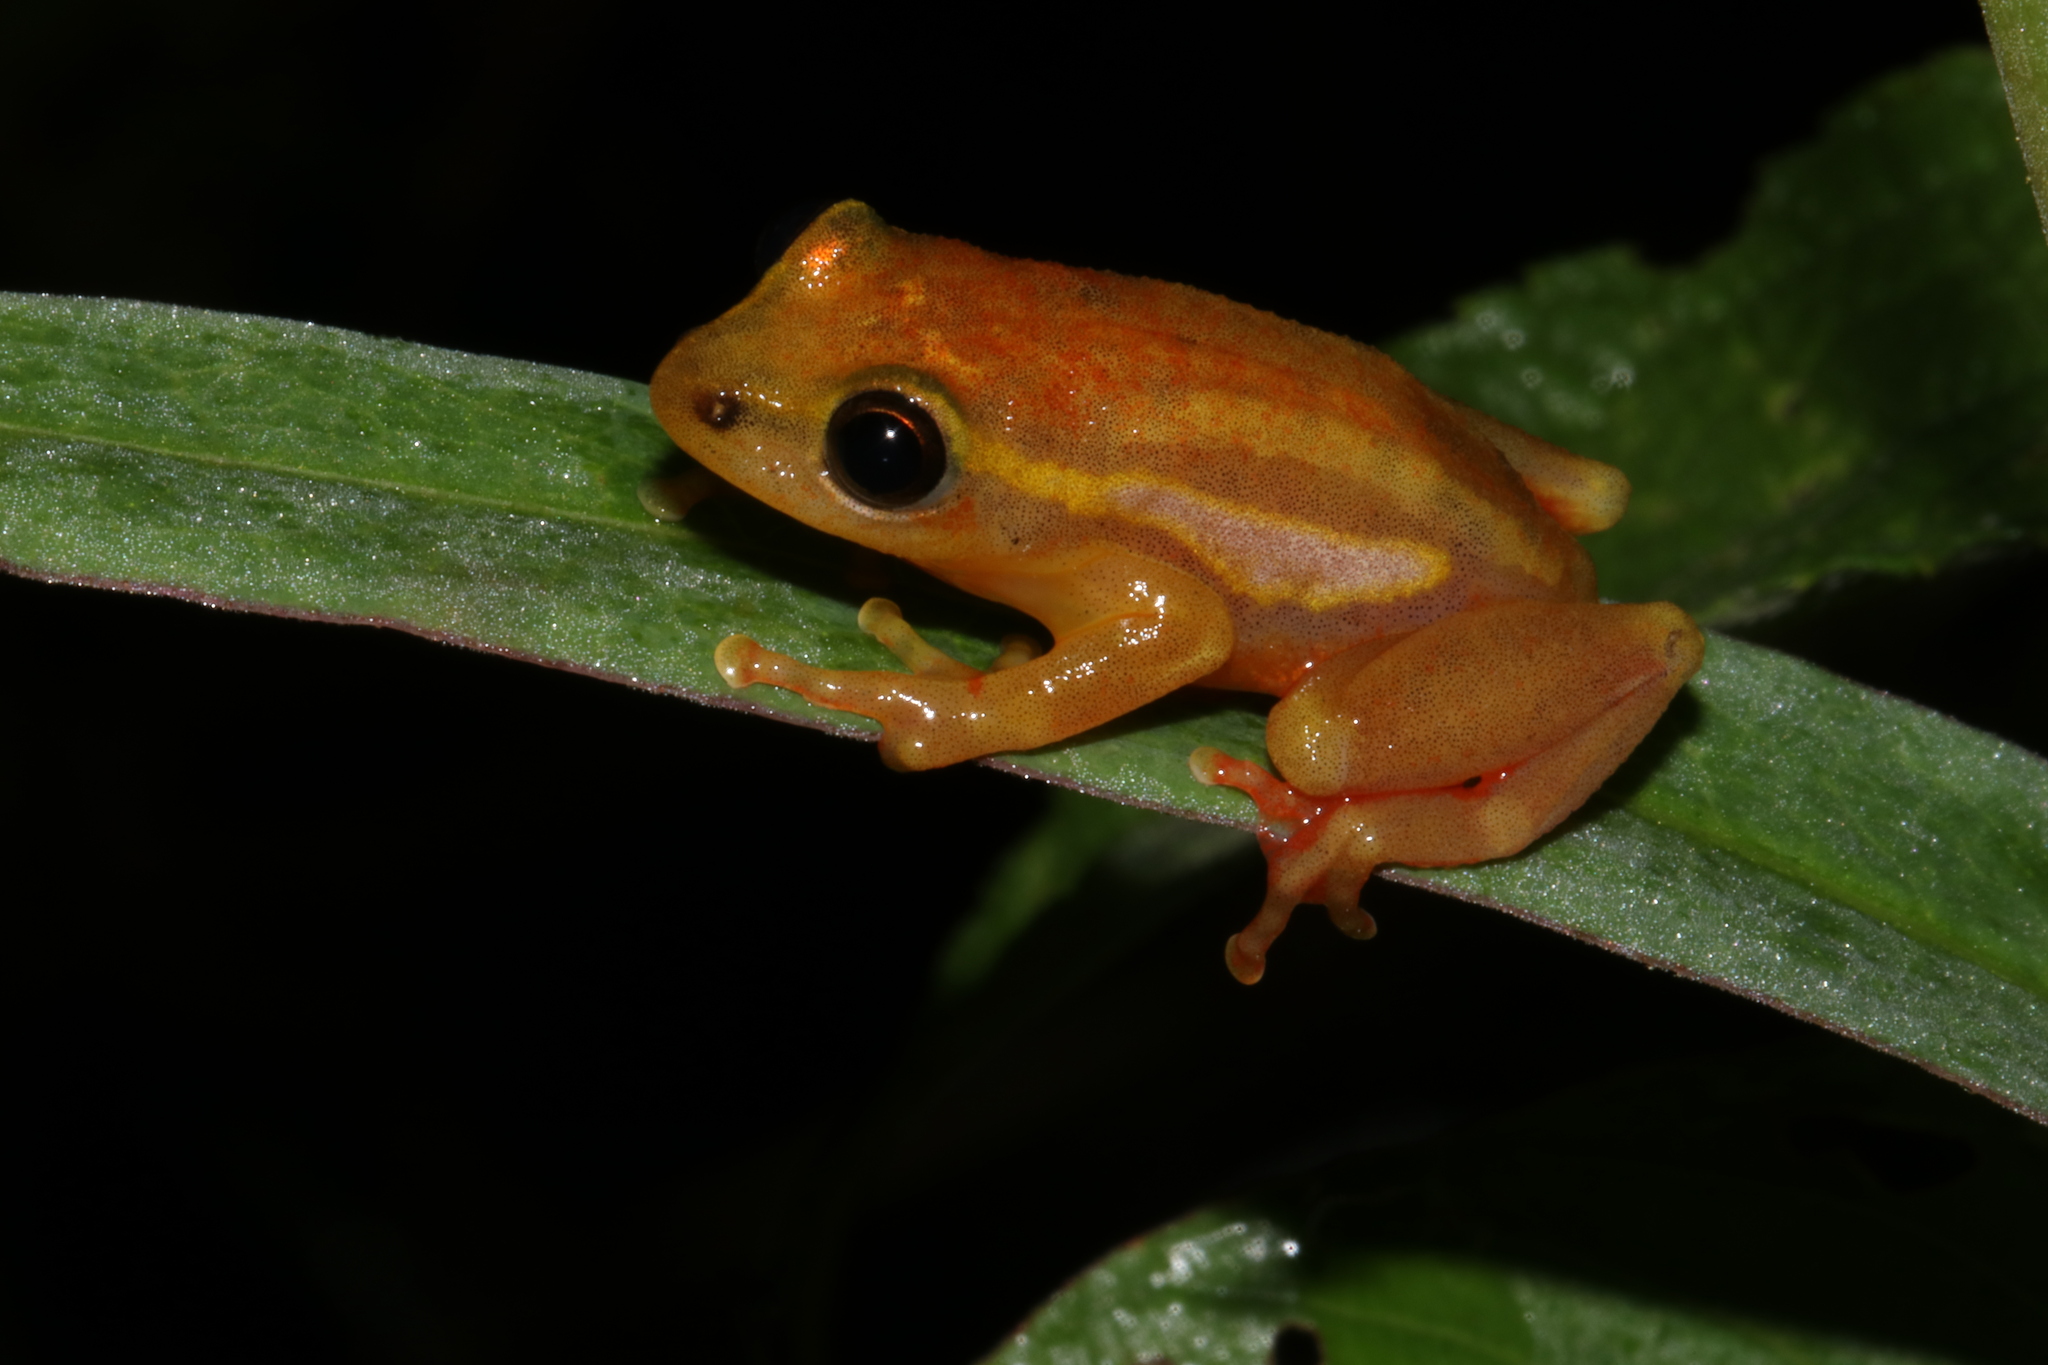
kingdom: Animalia
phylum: Chordata
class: Amphibia
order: Anura
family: Hyperoliidae
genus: Hyperolius
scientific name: Hyperolius mitchelli
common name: Mitchell's reed frog
